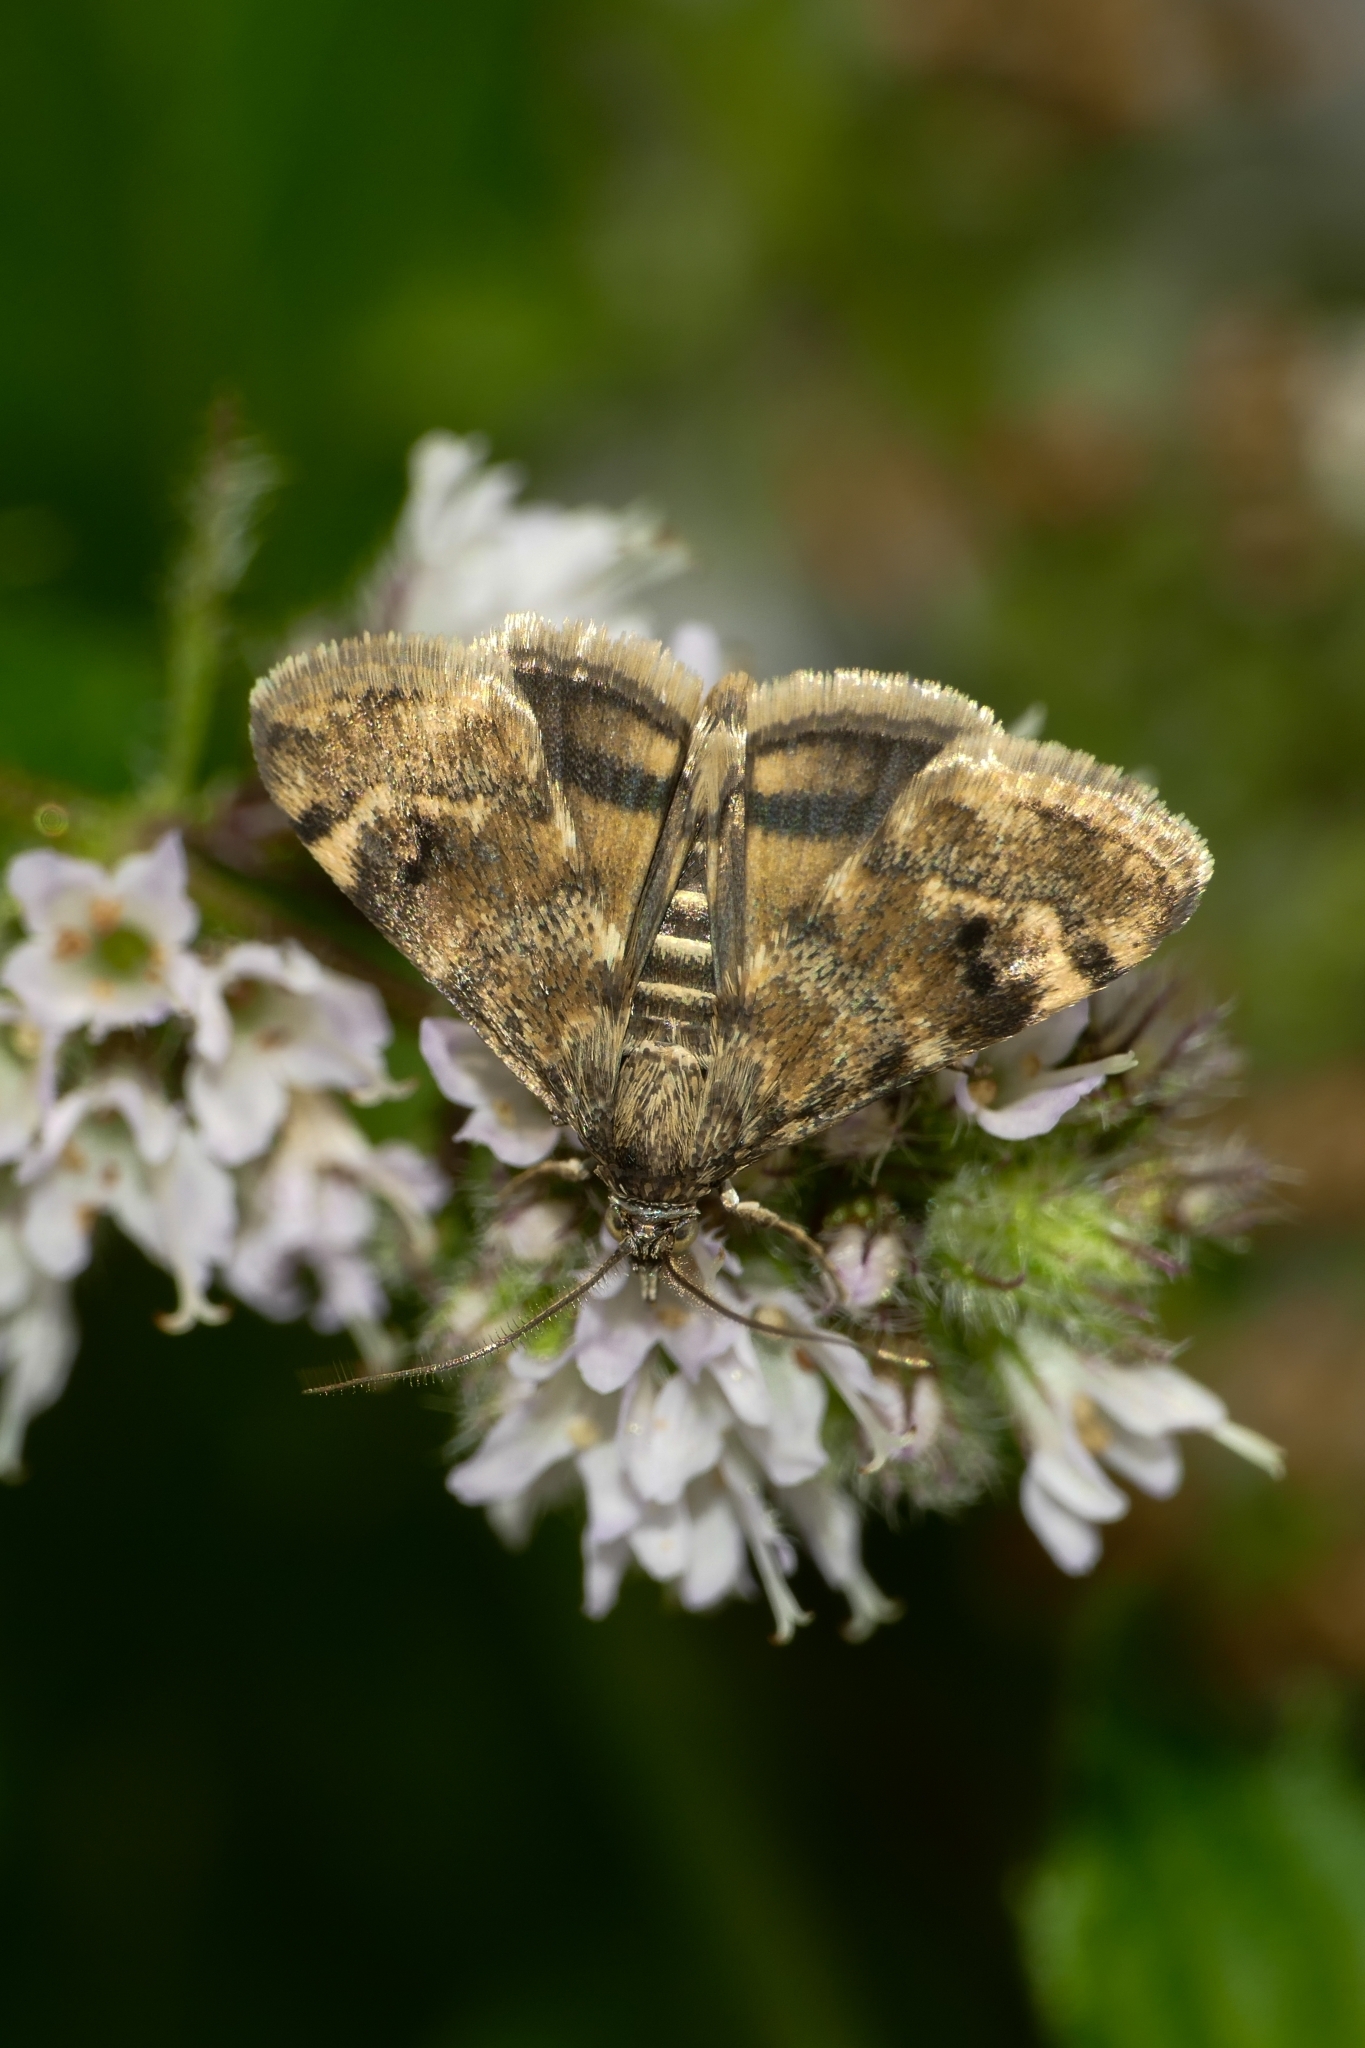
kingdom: Animalia
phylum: Arthropoda
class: Insecta
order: Lepidoptera
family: Crambidae
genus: Noctuelia
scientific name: Noctuelia Aporodes floralis
